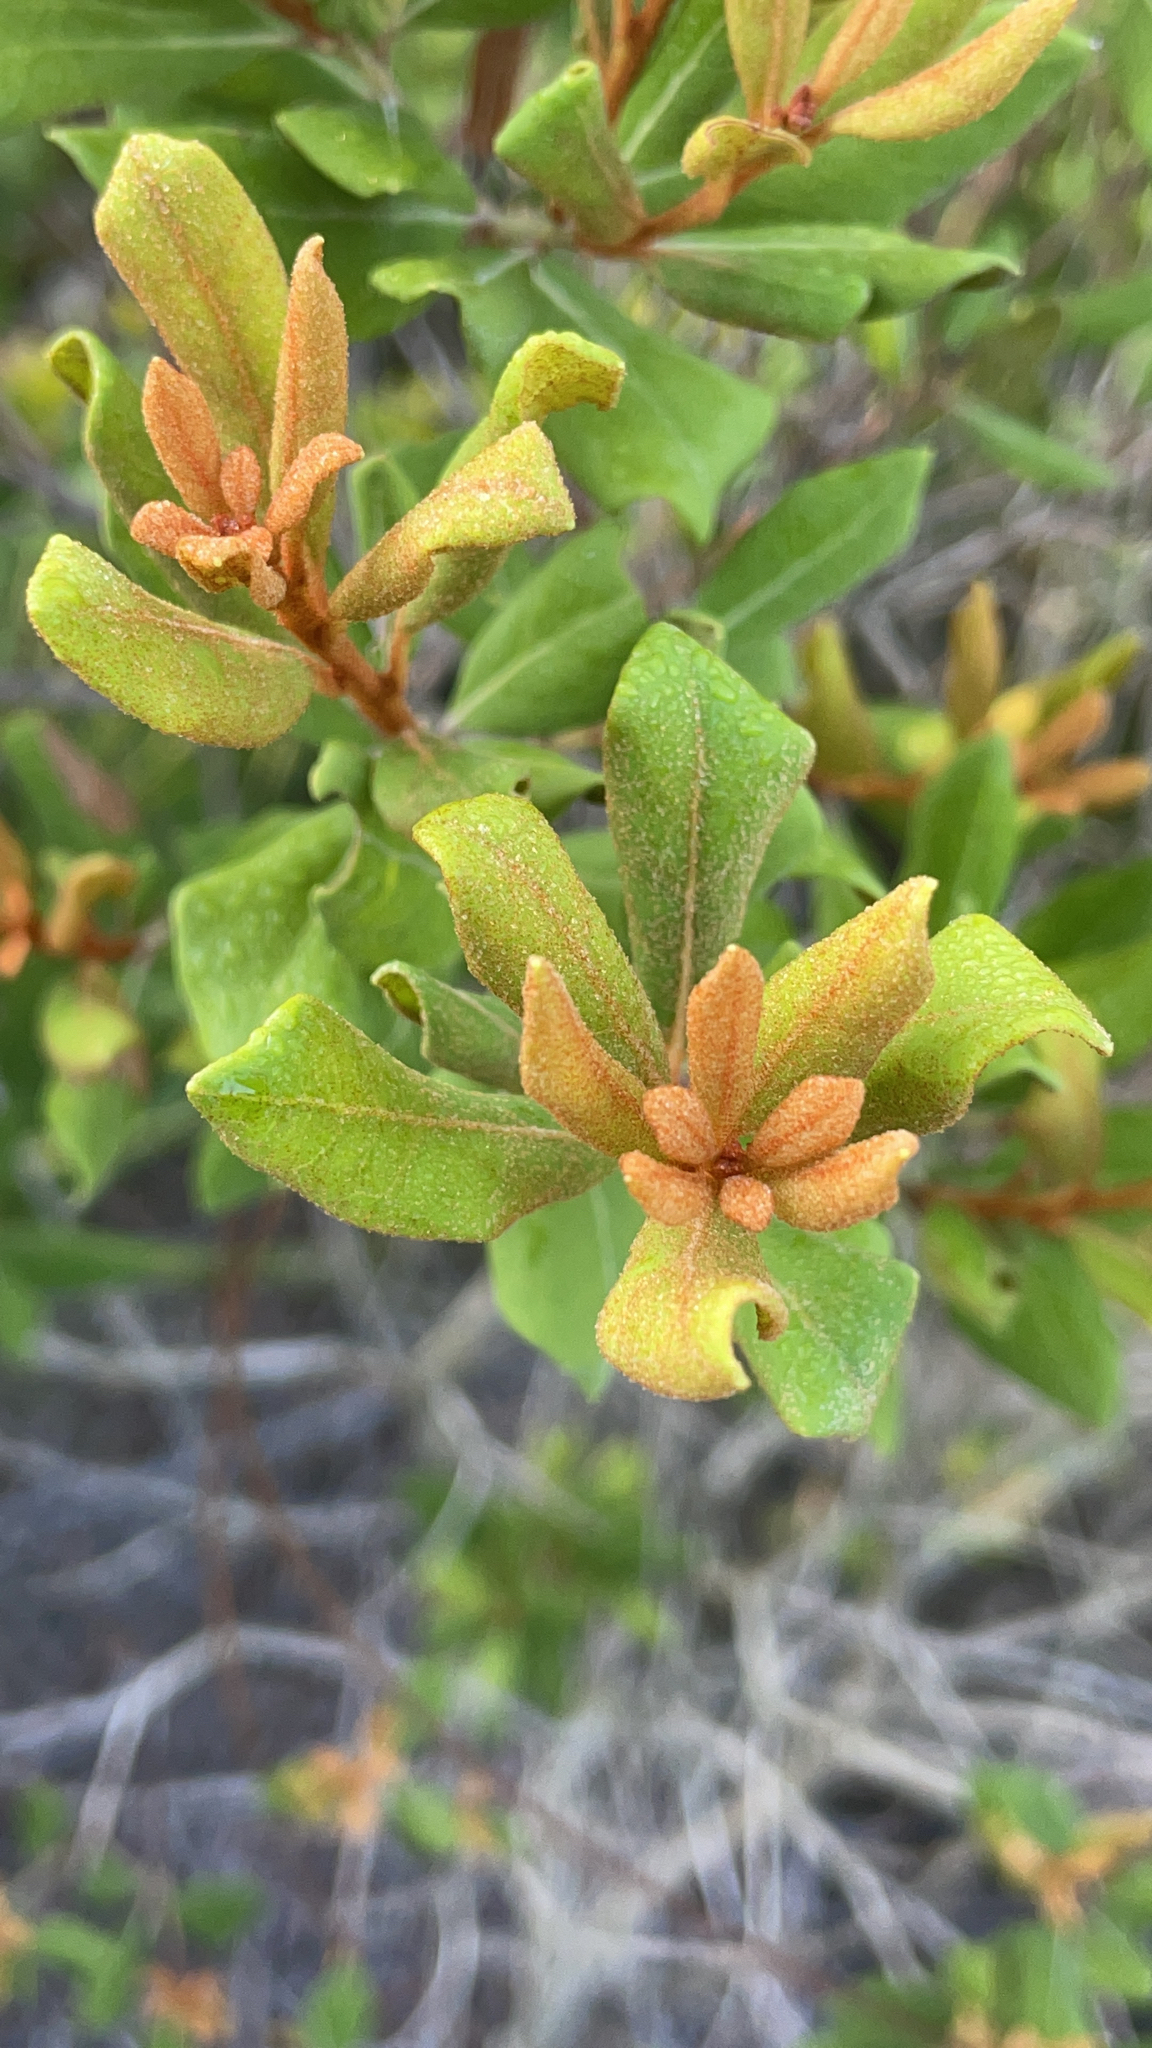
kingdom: Plantae
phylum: Tracheophyta
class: Magnoliopsida
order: Ericales
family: Ericaceae
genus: Lyonia
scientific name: Lyonia ferruginea
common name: Rusty lyonia
